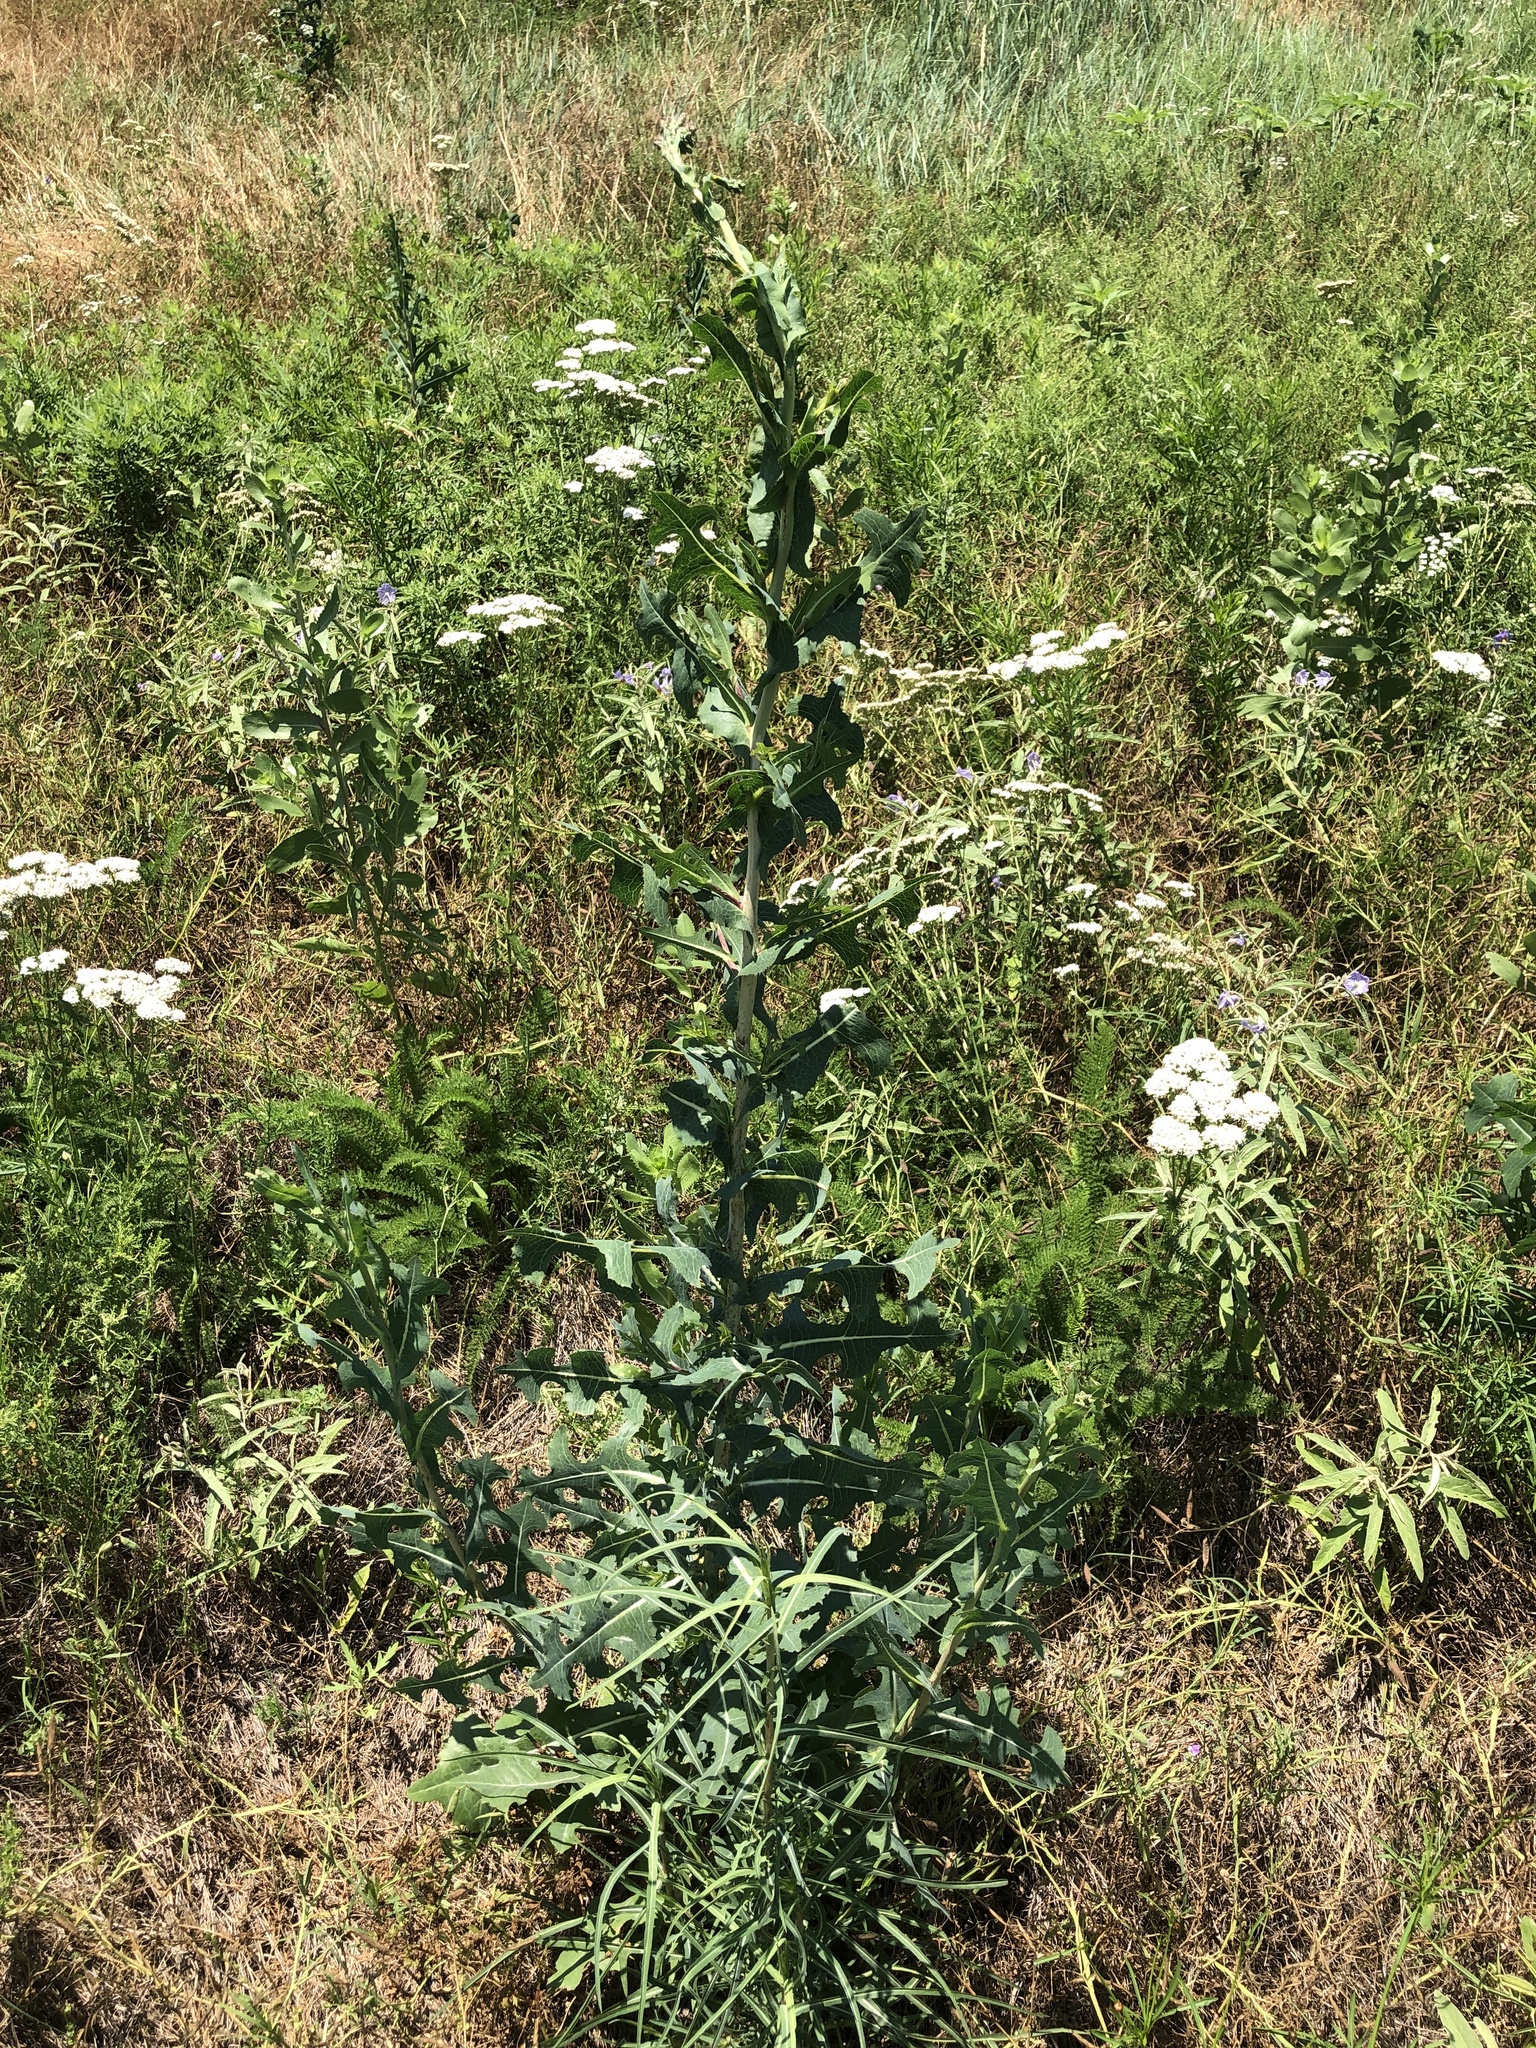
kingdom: Plantae
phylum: Tracheophyta
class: Magnoliopsida
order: Asterales
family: Asteraceae
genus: Lactuca
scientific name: Lactuca serriola
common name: Prickly lettuce
